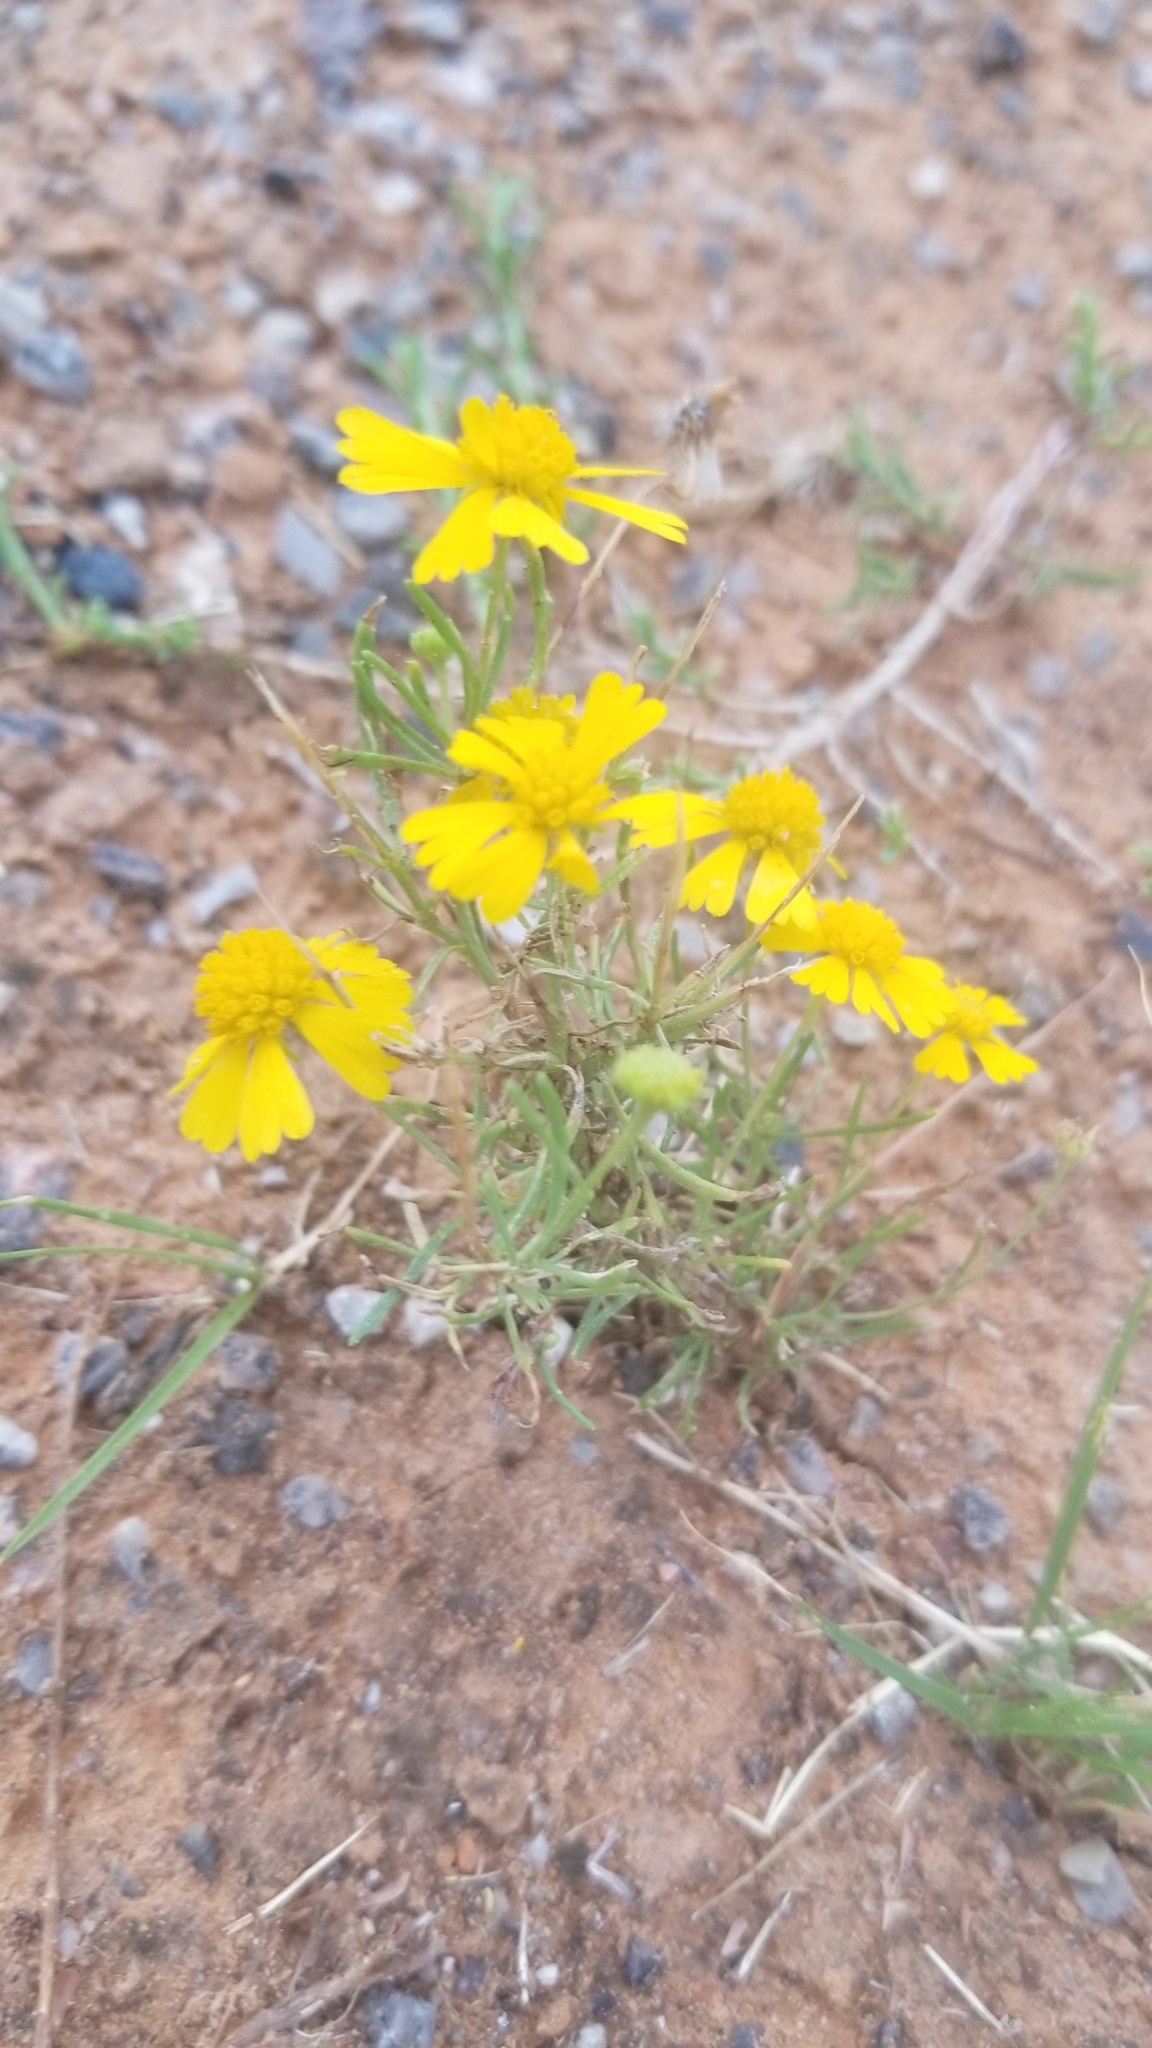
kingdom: Plantae
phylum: Tracheophyta
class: Magnoliopsida
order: Asterales
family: Asteraceae
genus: Helenium
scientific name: Helenium amarum
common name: Bitter sneezeweed
